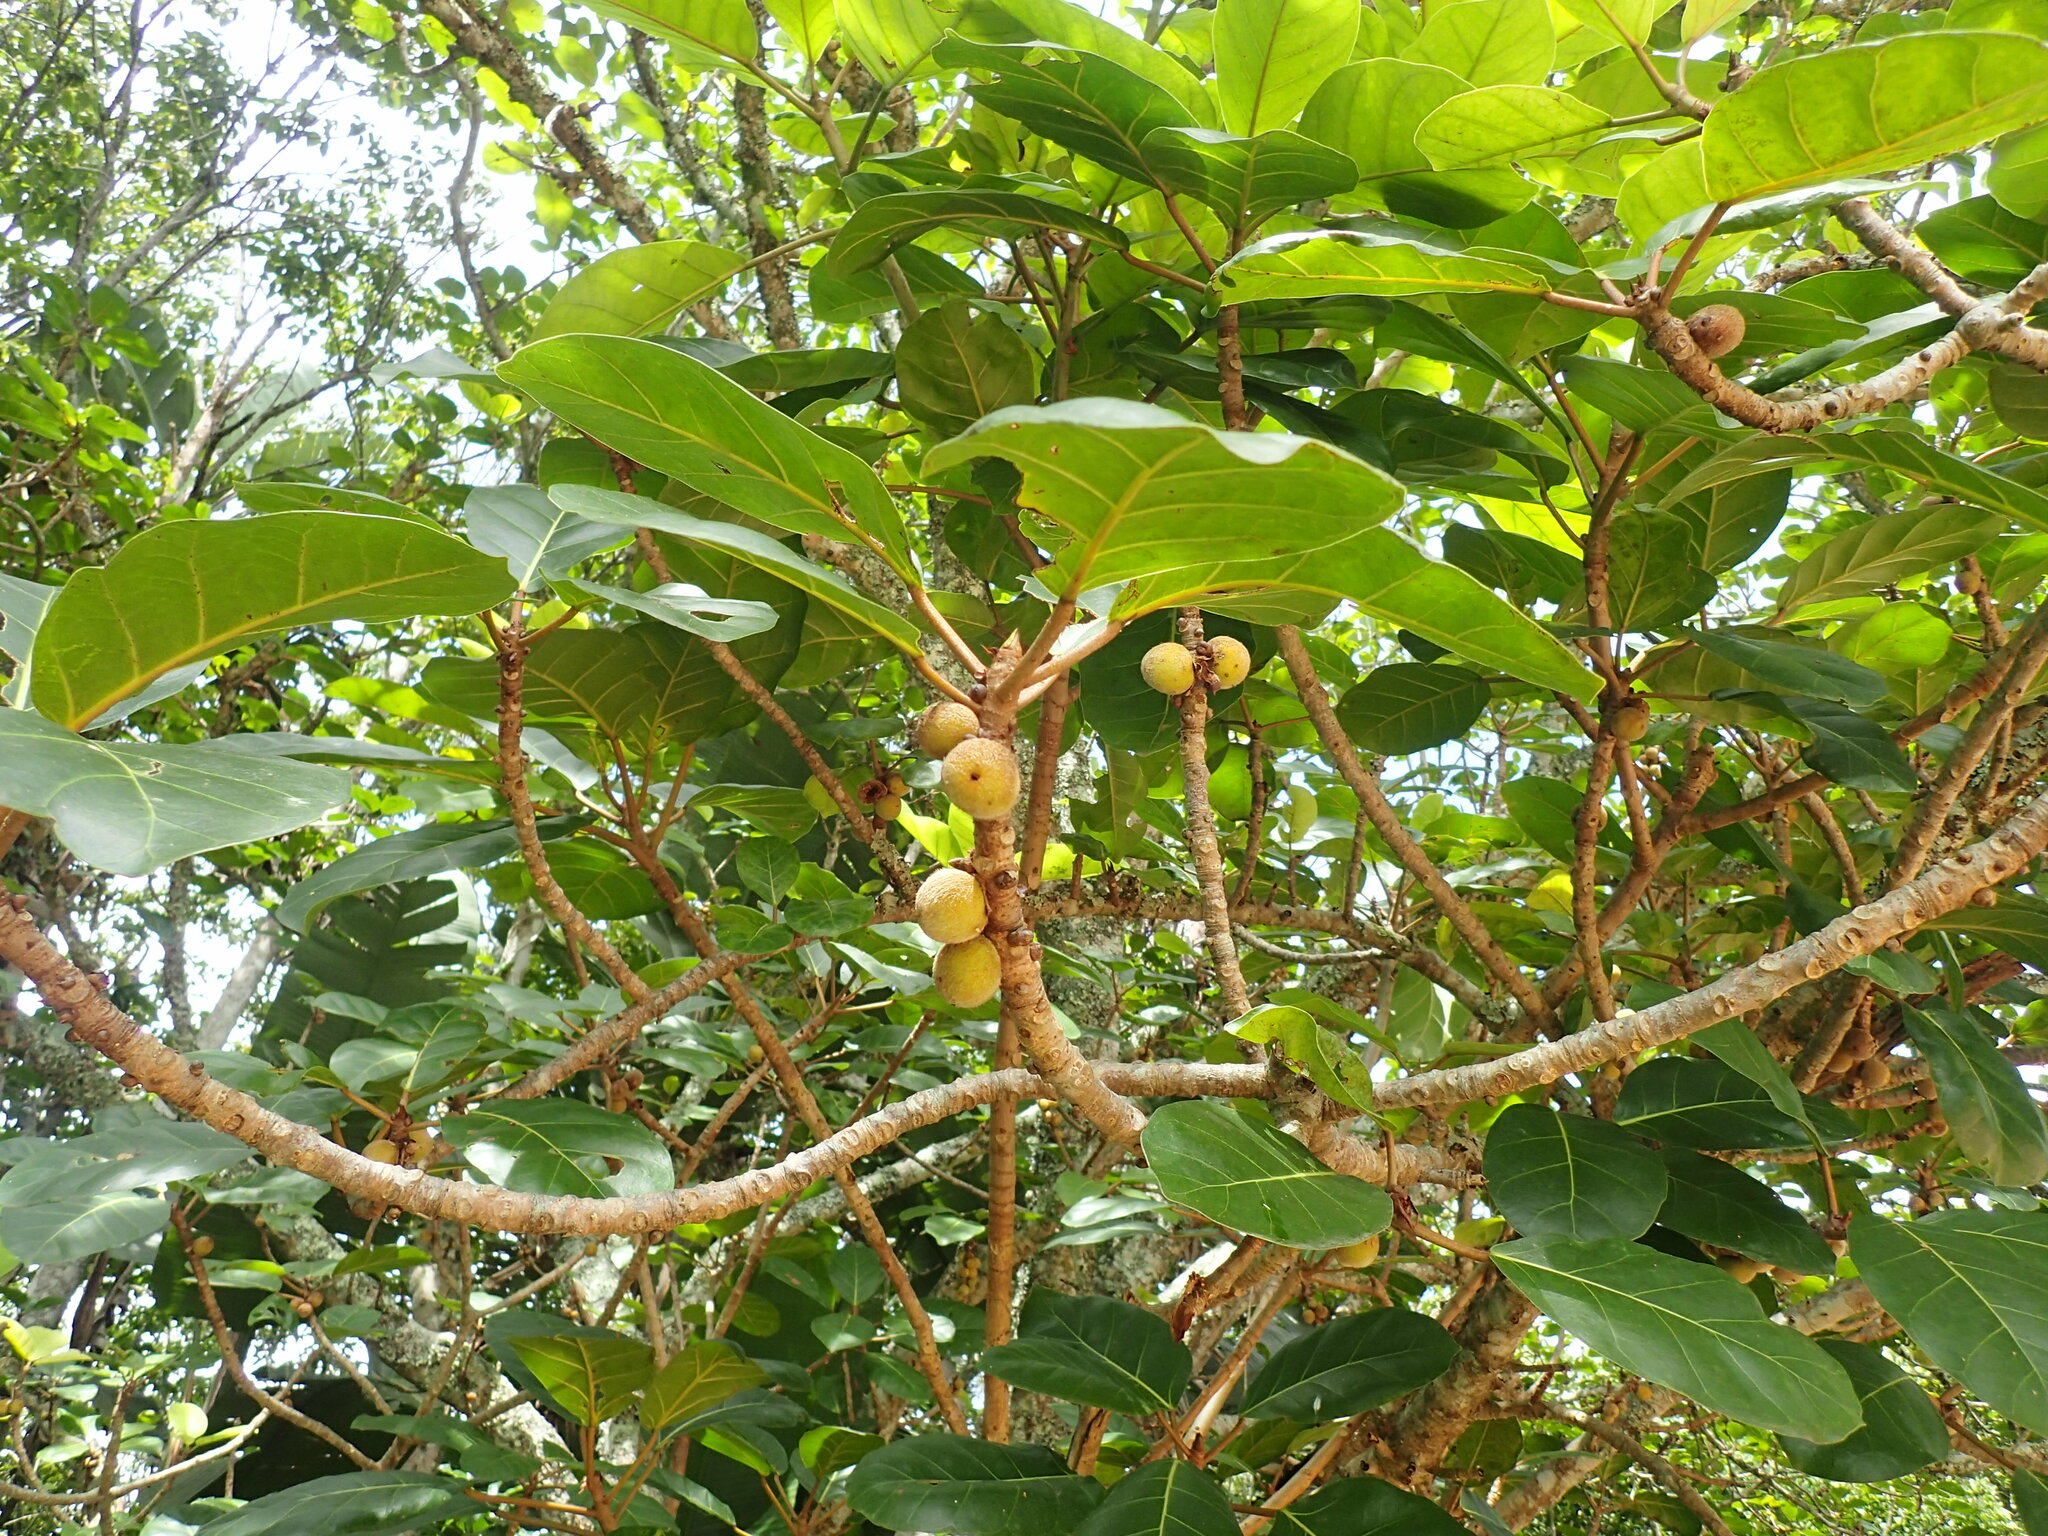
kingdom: Plantae
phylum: Tracheophyta
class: Magnoliopsida
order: Rosales
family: Moraceae
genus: Ficus
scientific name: Ficus lutea
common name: Giant-leaved fig
